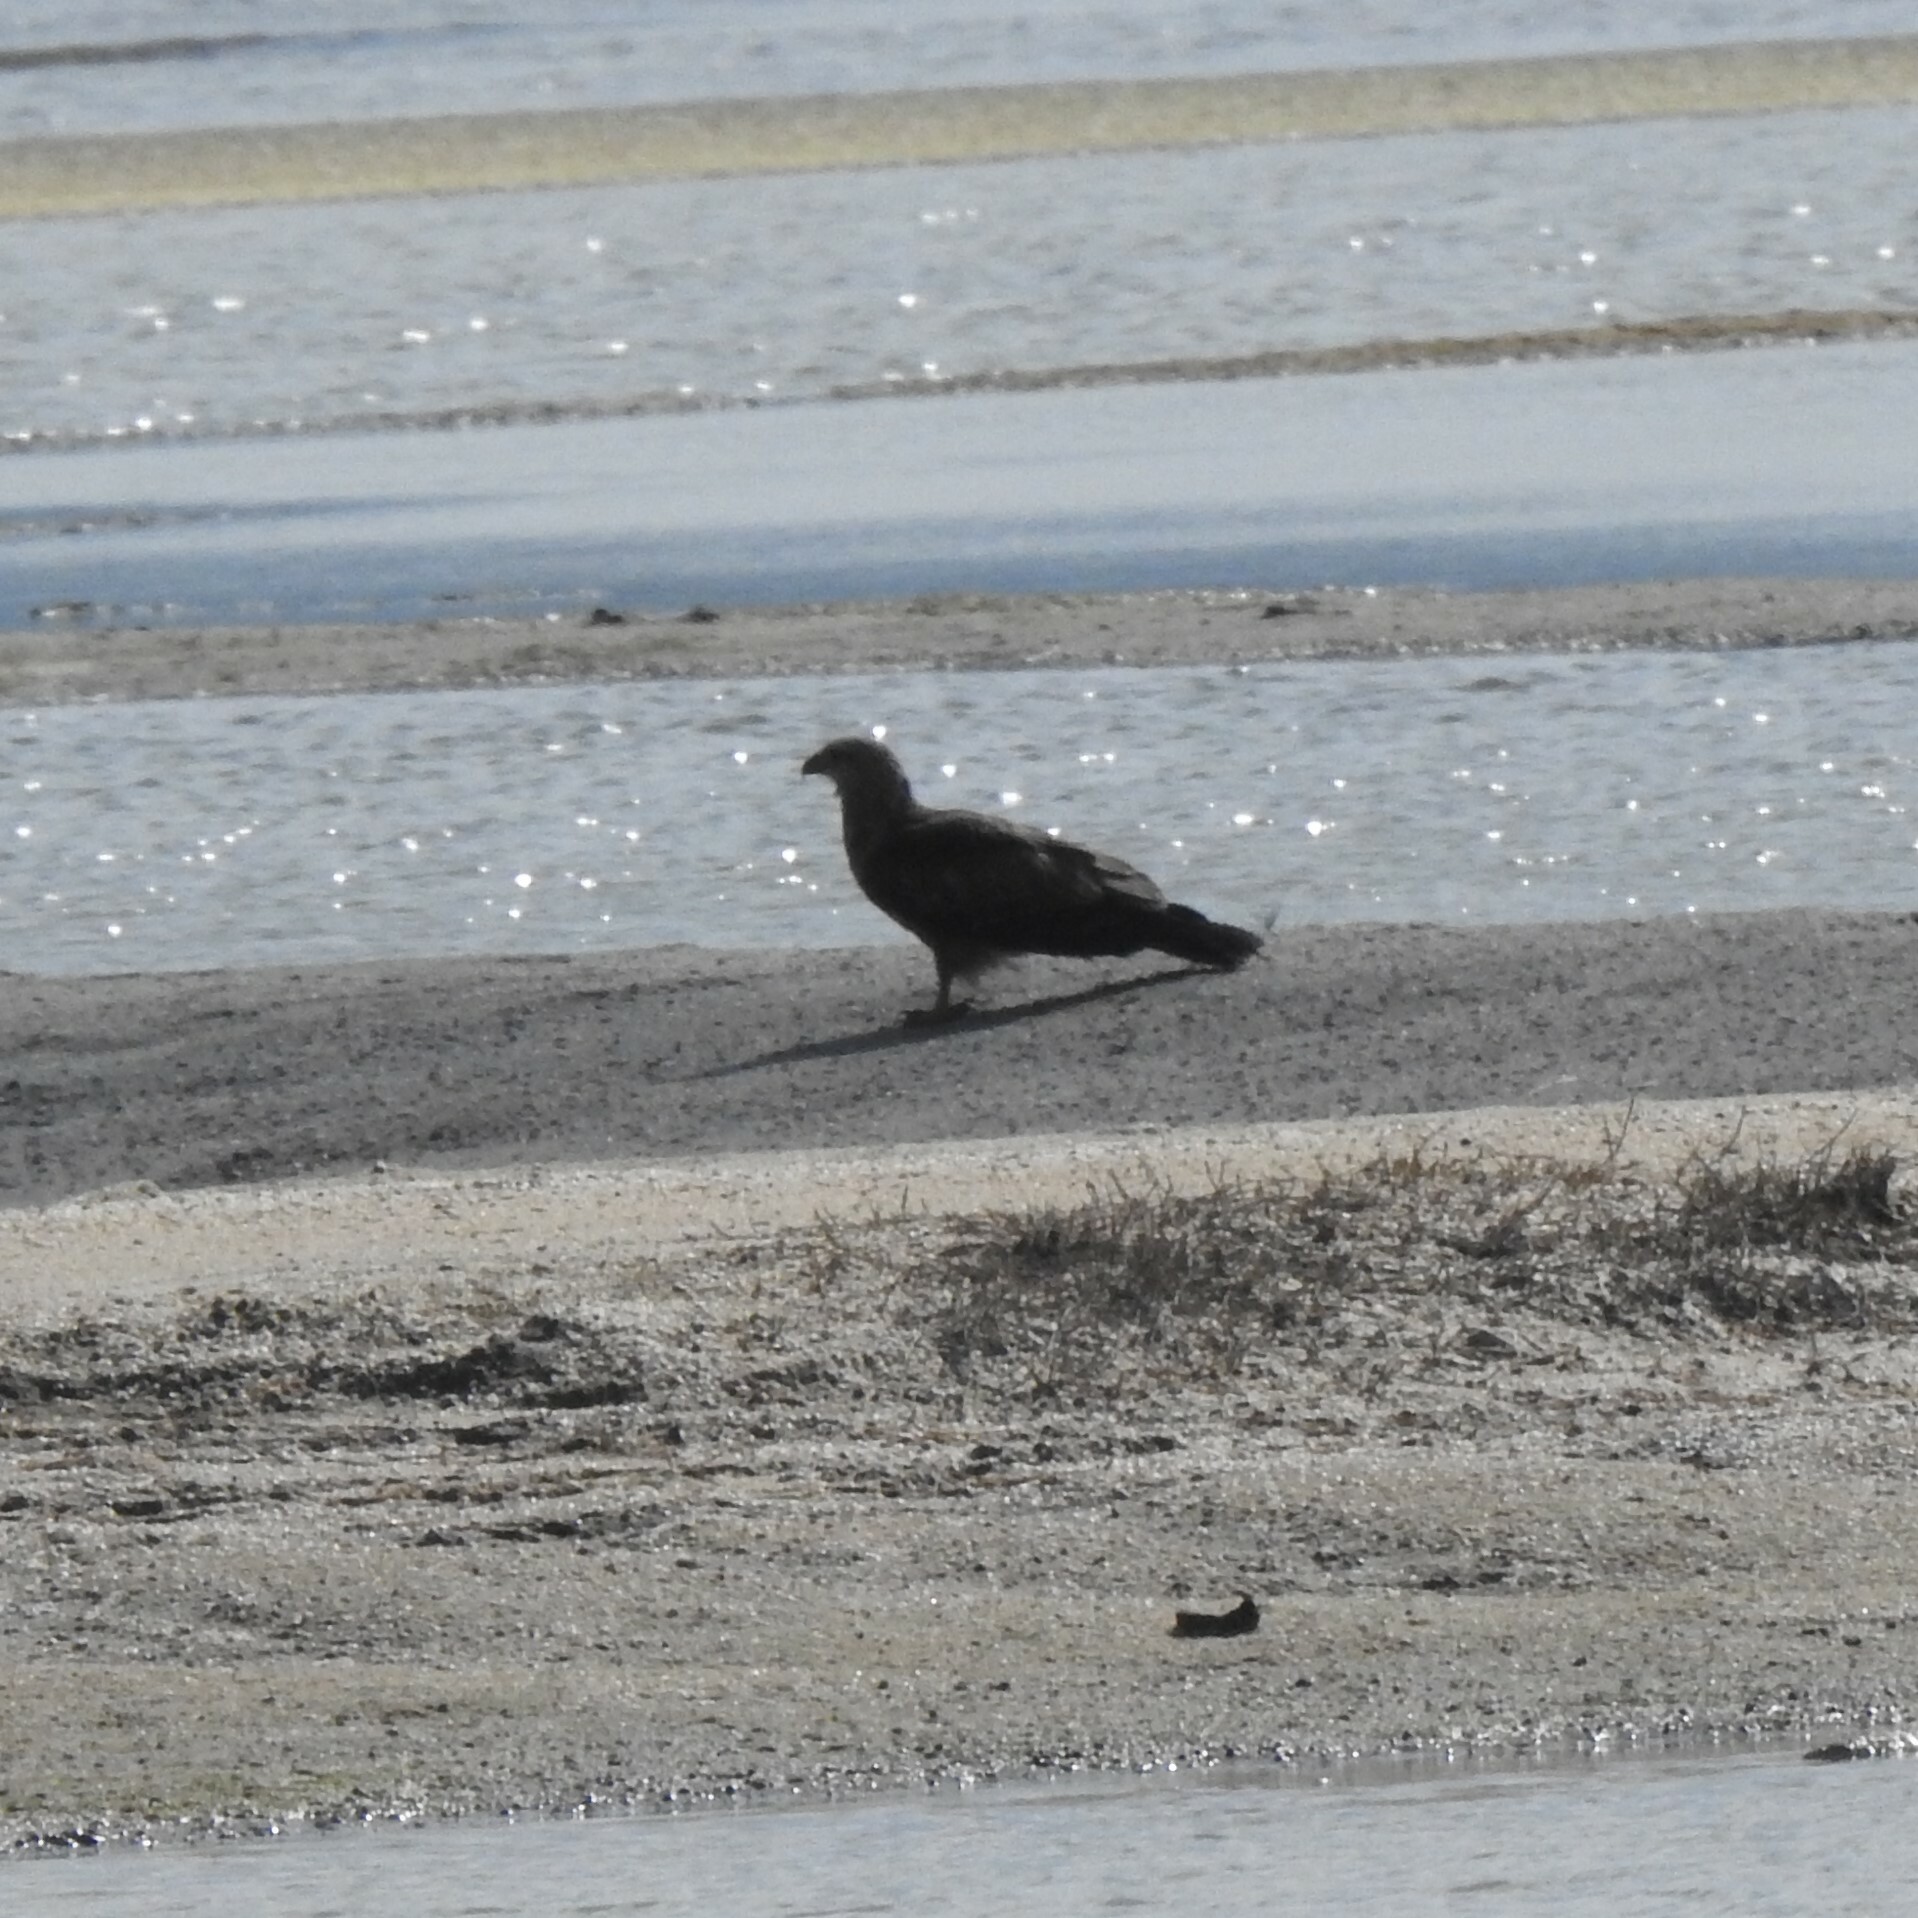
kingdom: Animalia
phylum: Chordata
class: Aves
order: Accipitriformes
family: Accipitridae
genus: Haliastur
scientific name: Haliastur indus
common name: Brahminy kite
